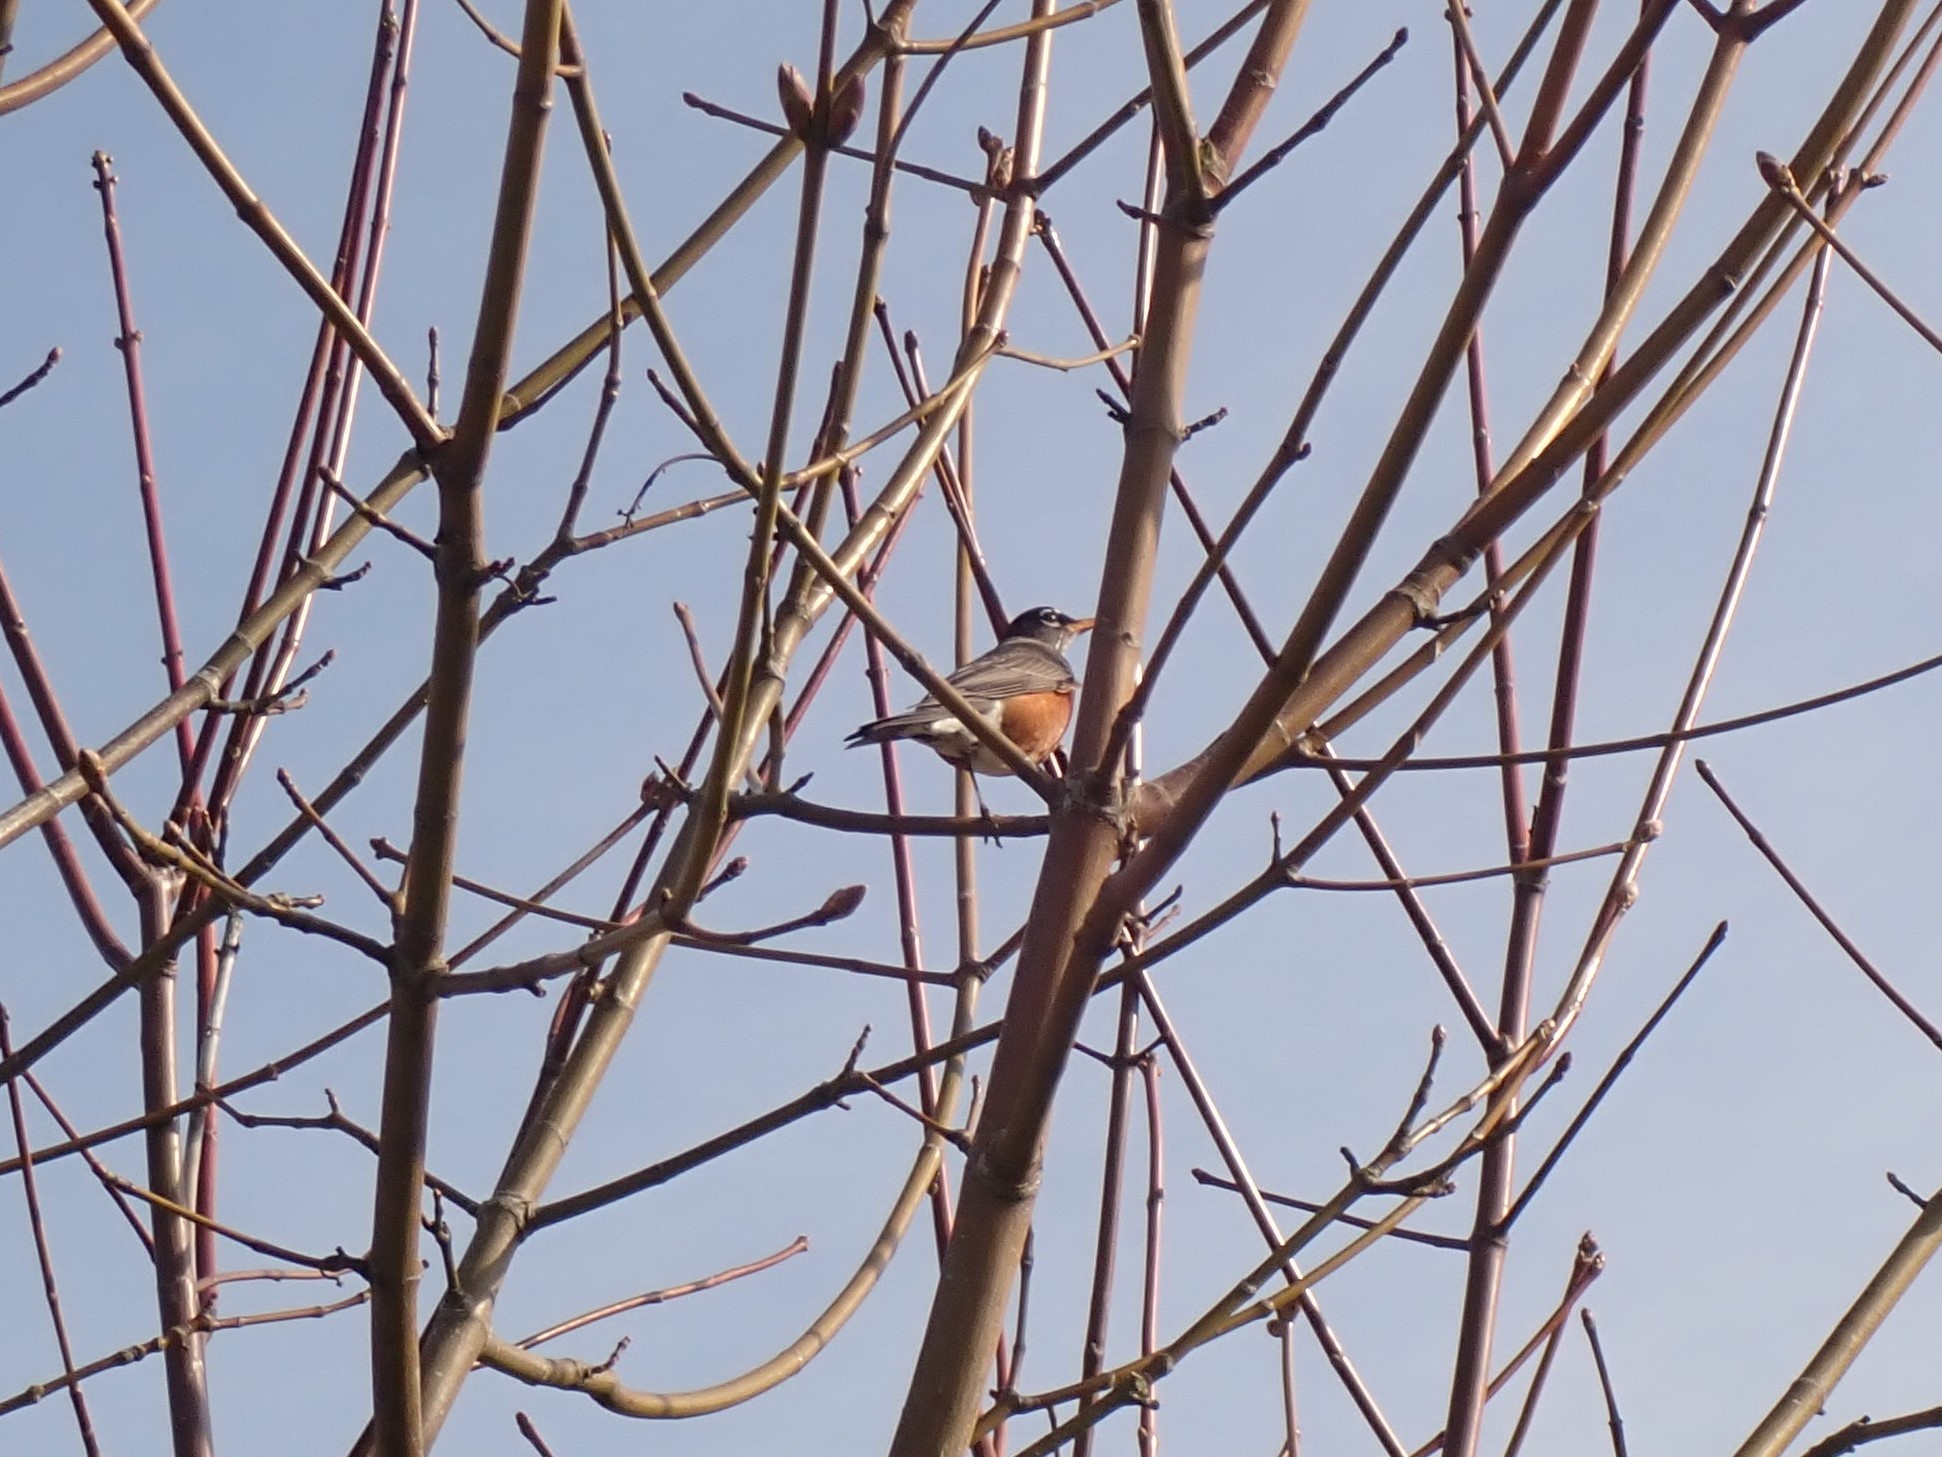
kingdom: Animalia
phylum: Chordata
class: Aves
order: Passeriformes
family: Turdidae
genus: Turdus
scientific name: Turdus migratorius
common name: American robin
